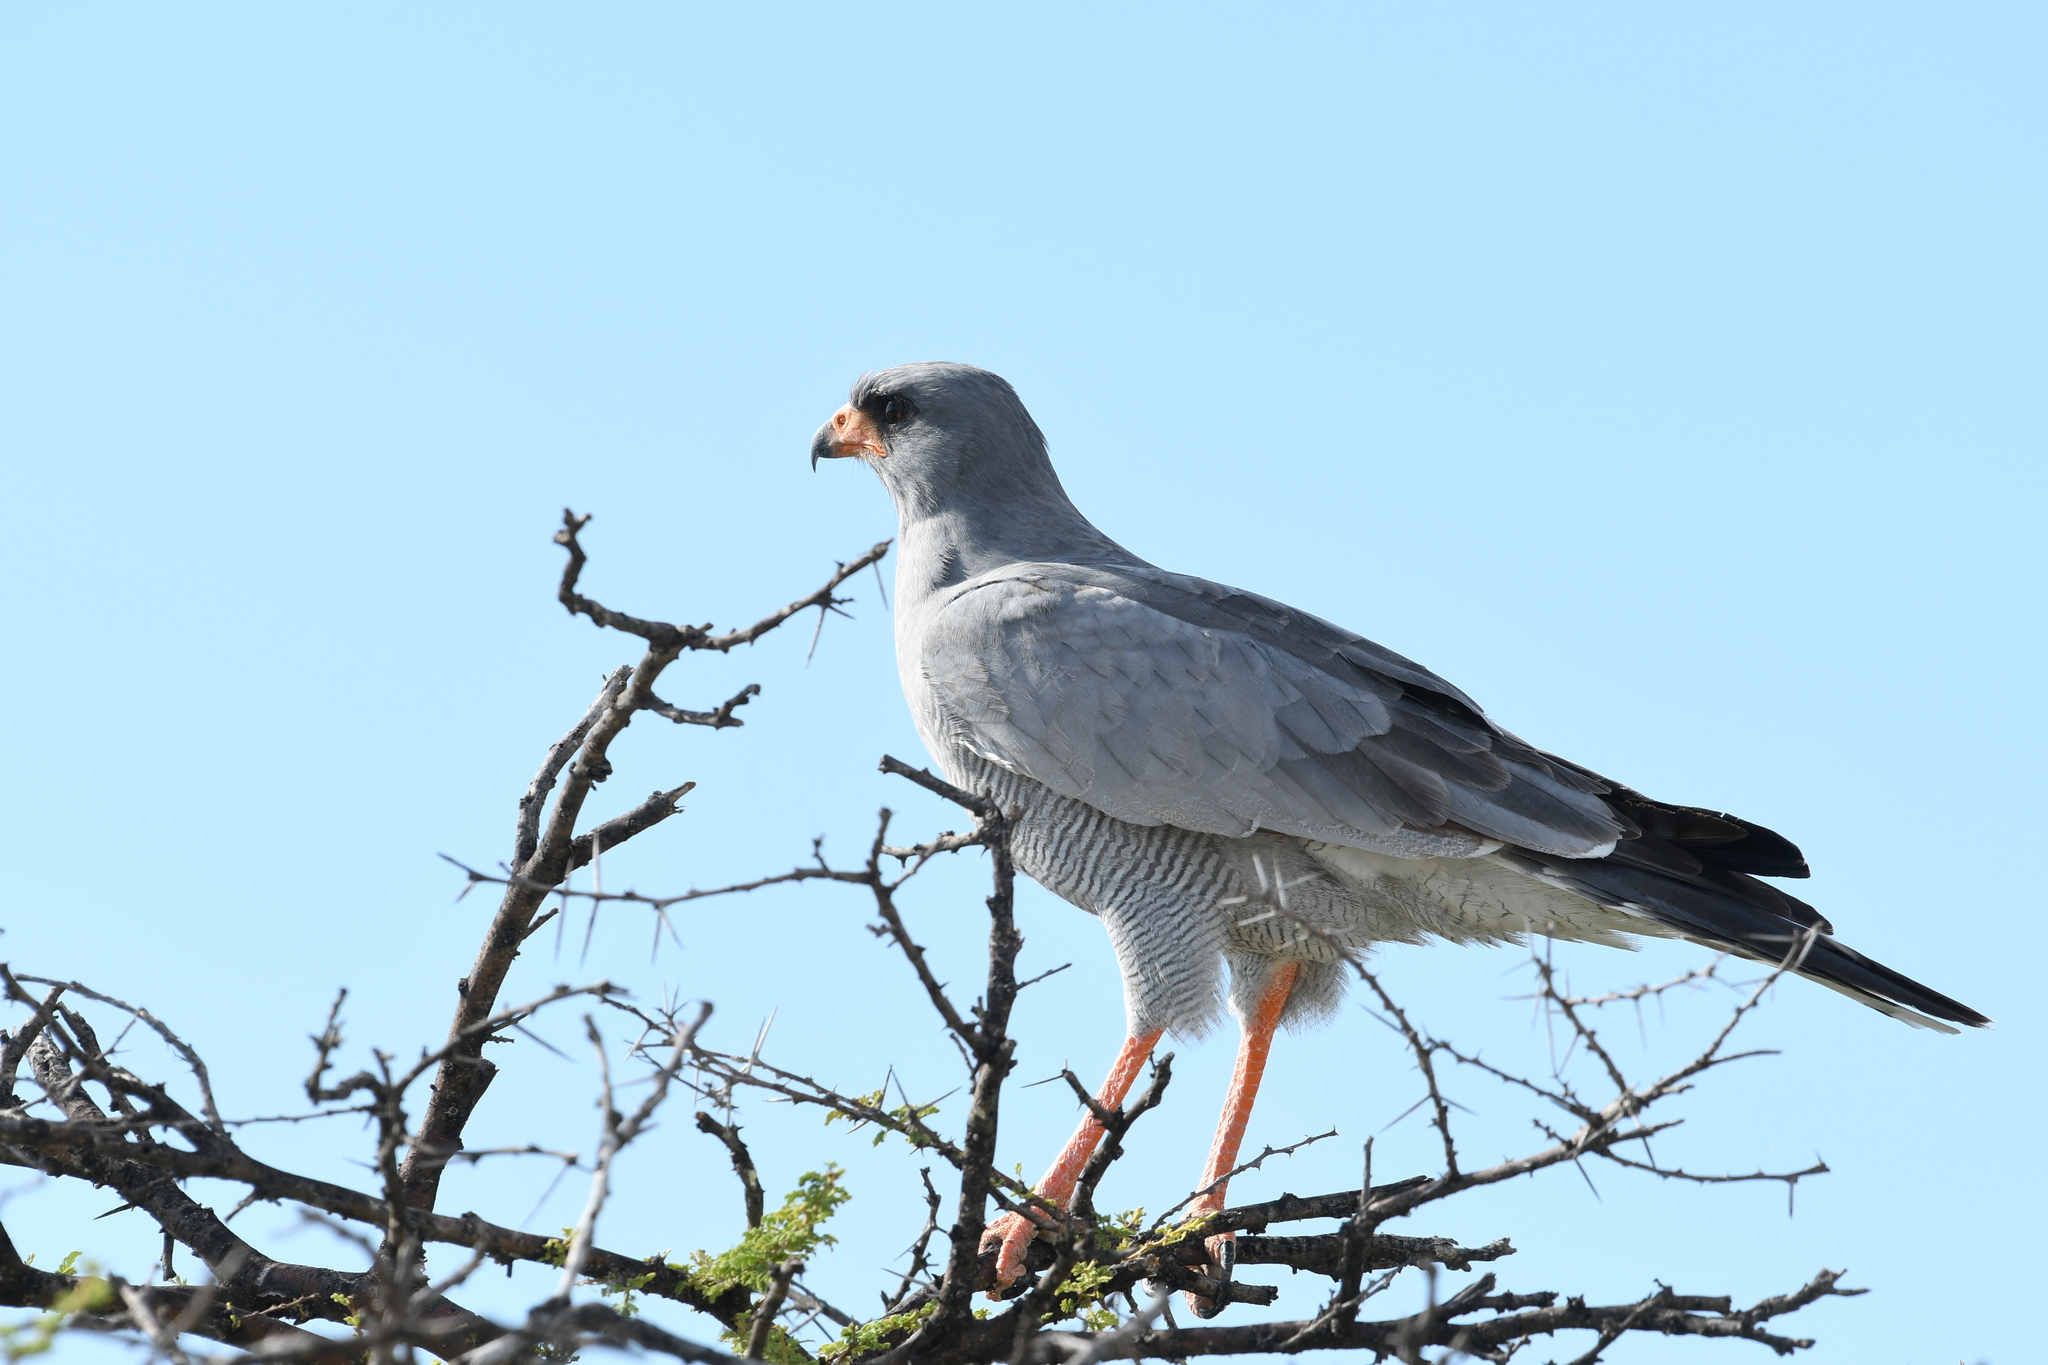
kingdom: Animalia
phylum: Chordata
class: Aves
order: Accipitriformes
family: Accipitridae
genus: Melierax
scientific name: Melierax canorus
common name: Pale chanting-goshawk
